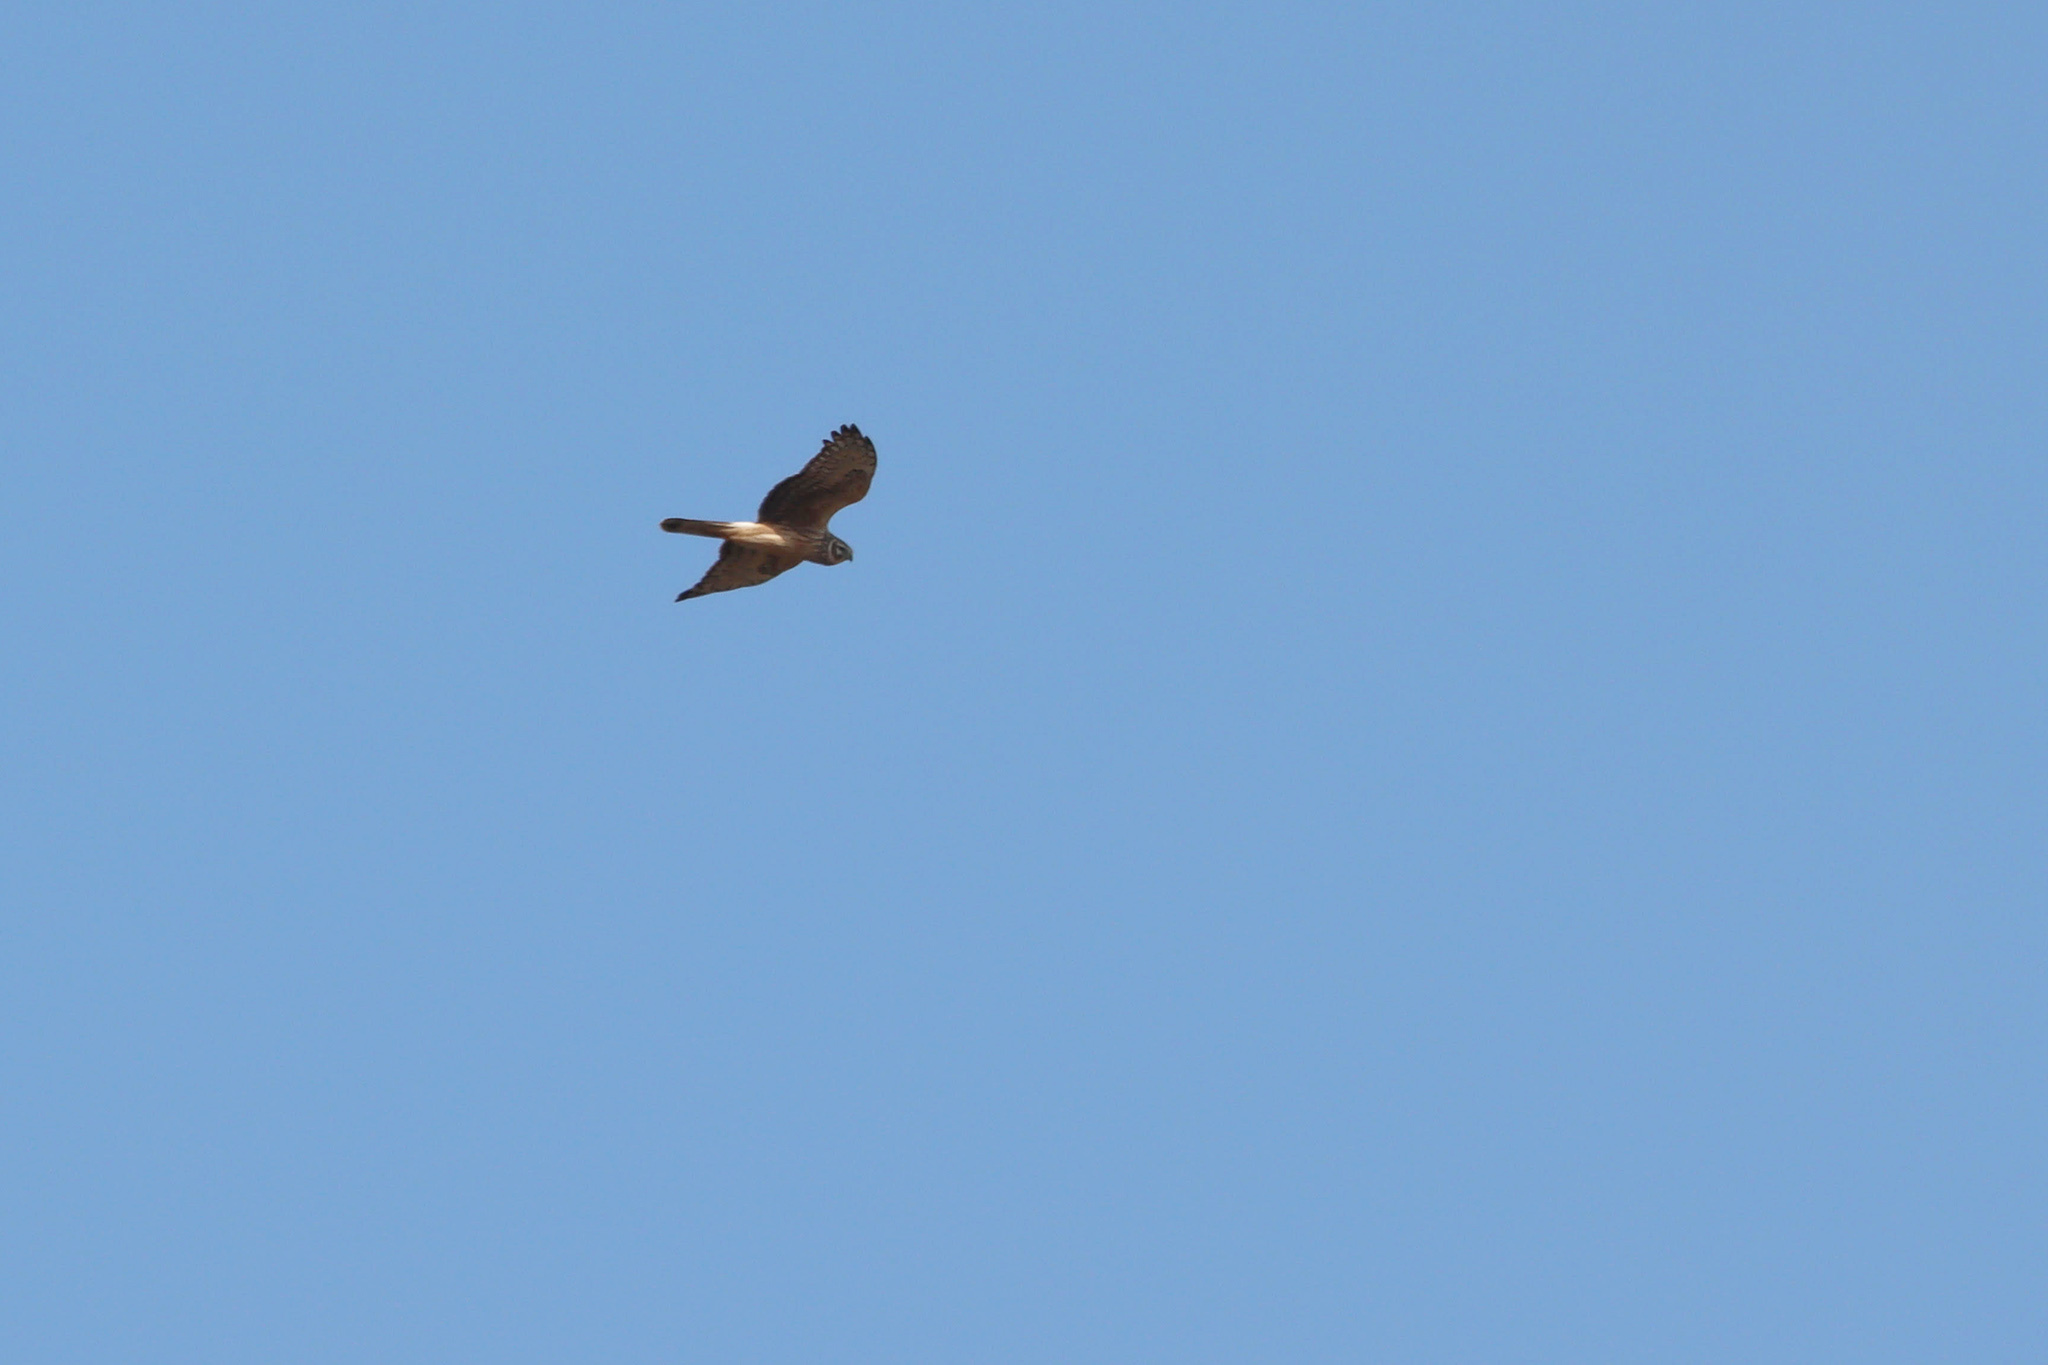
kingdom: Animalia
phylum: Chordata
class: Aves
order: Accipitriformes
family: Accipitridae
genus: Circus
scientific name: Circus cyaneus
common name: Hen harrier
